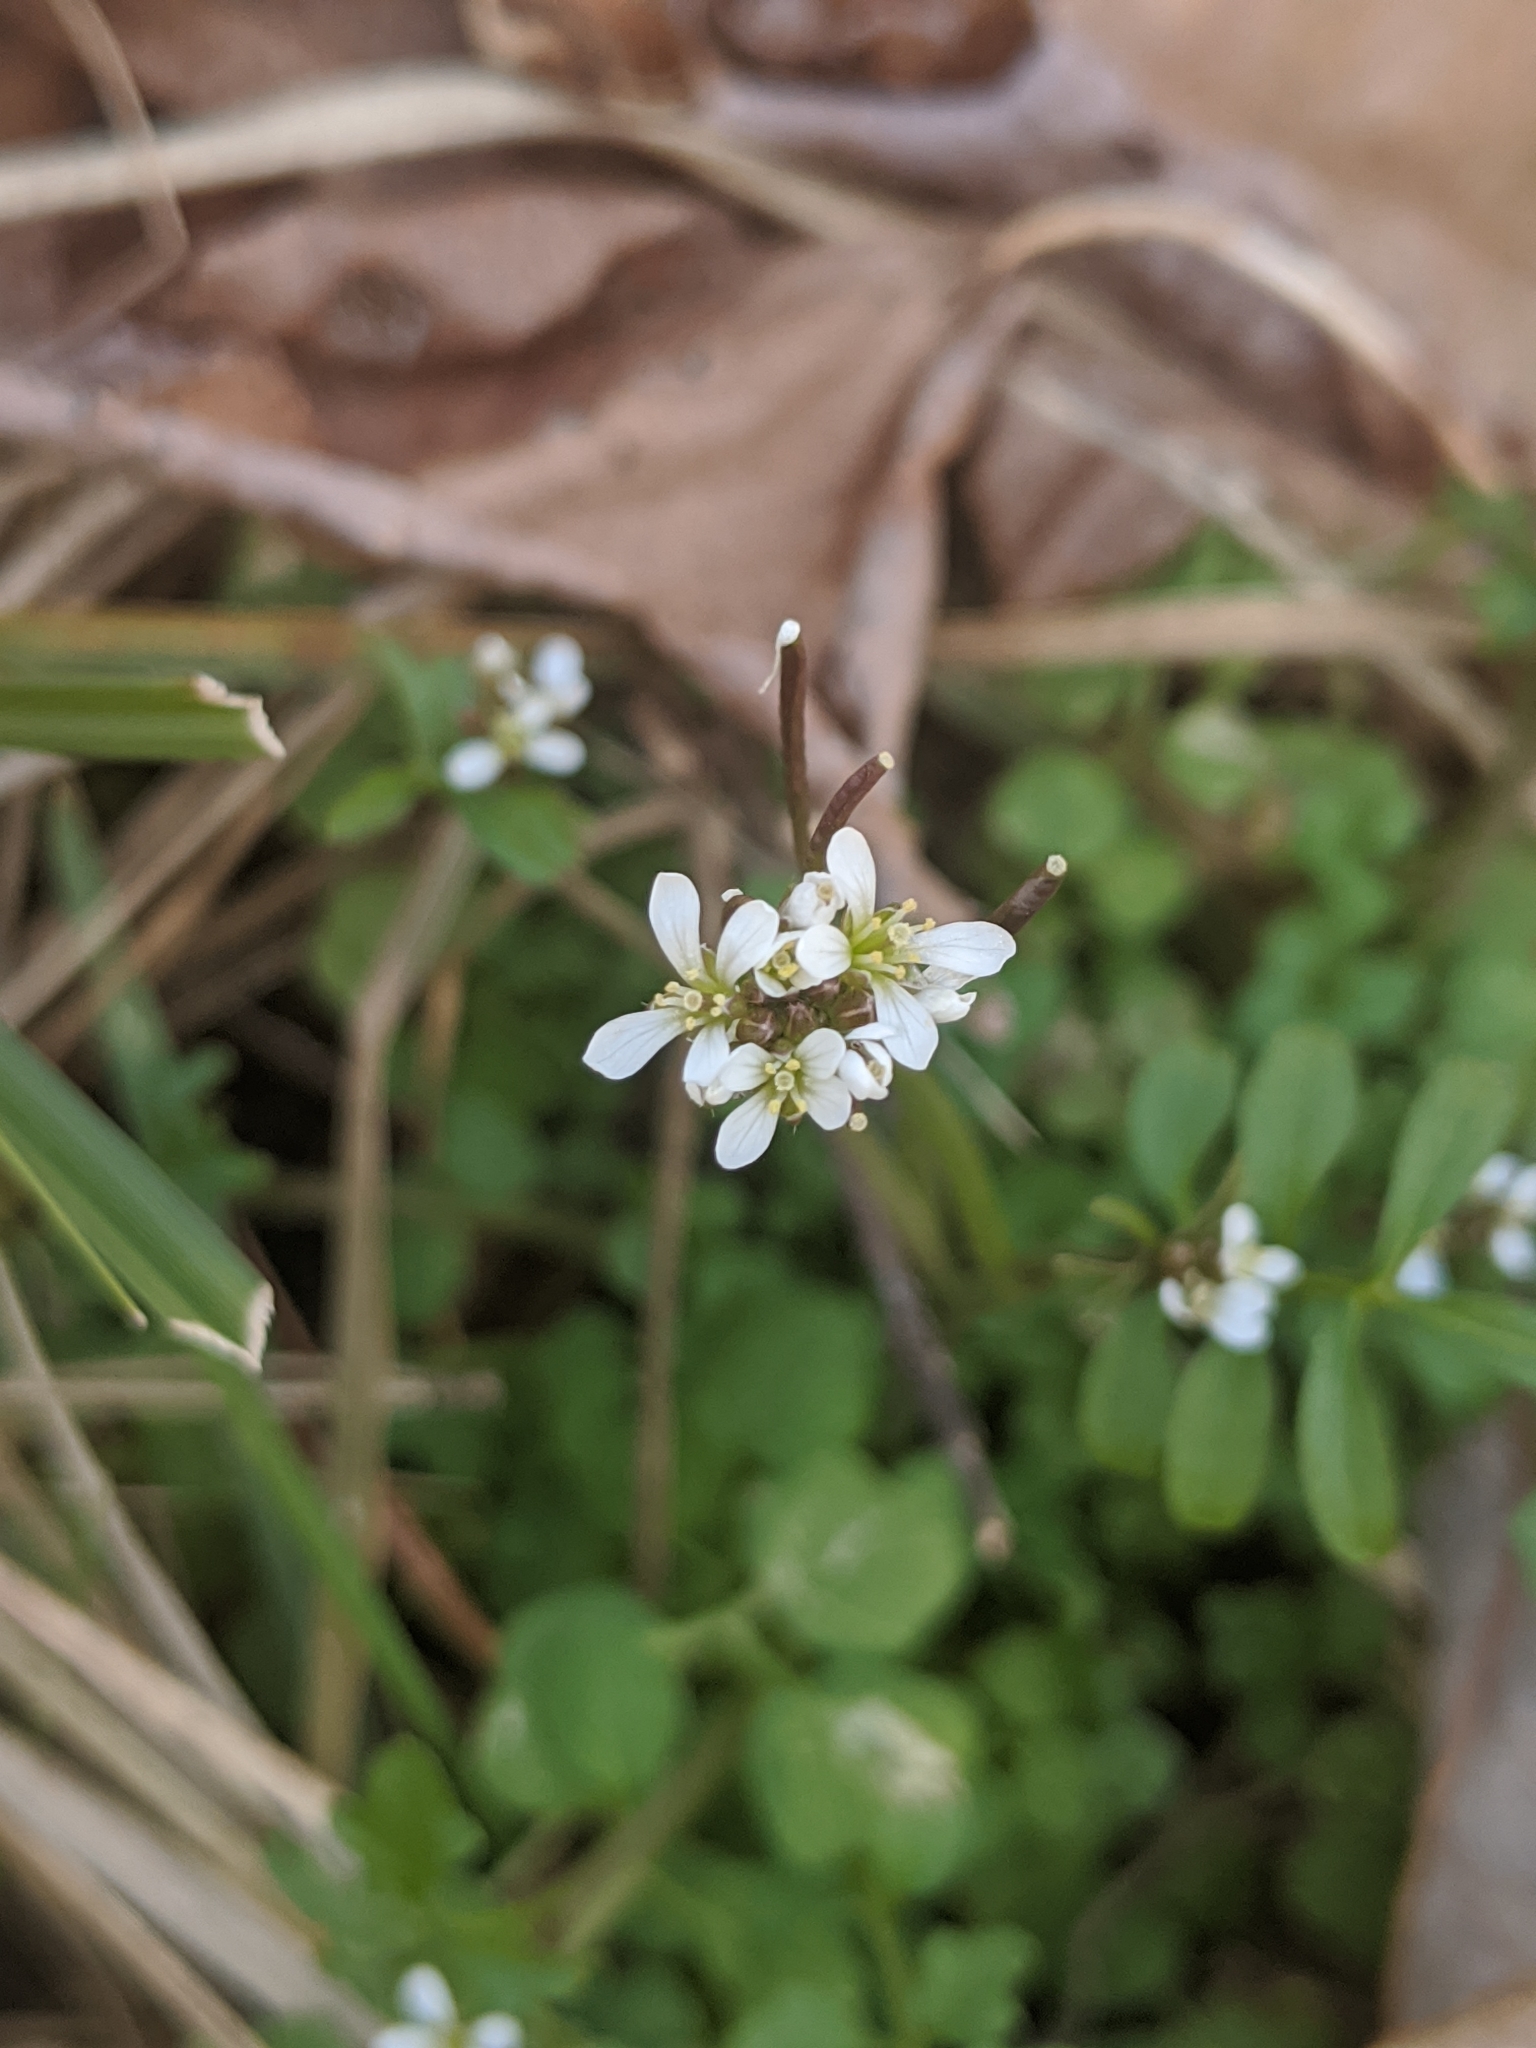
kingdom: Plantae
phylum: Tracheophyta
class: Magnoliopsida
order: Brassicales
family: Brassicaceae
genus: Cardamine
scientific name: Cardamine hirsuta
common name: Hairy bittercress
